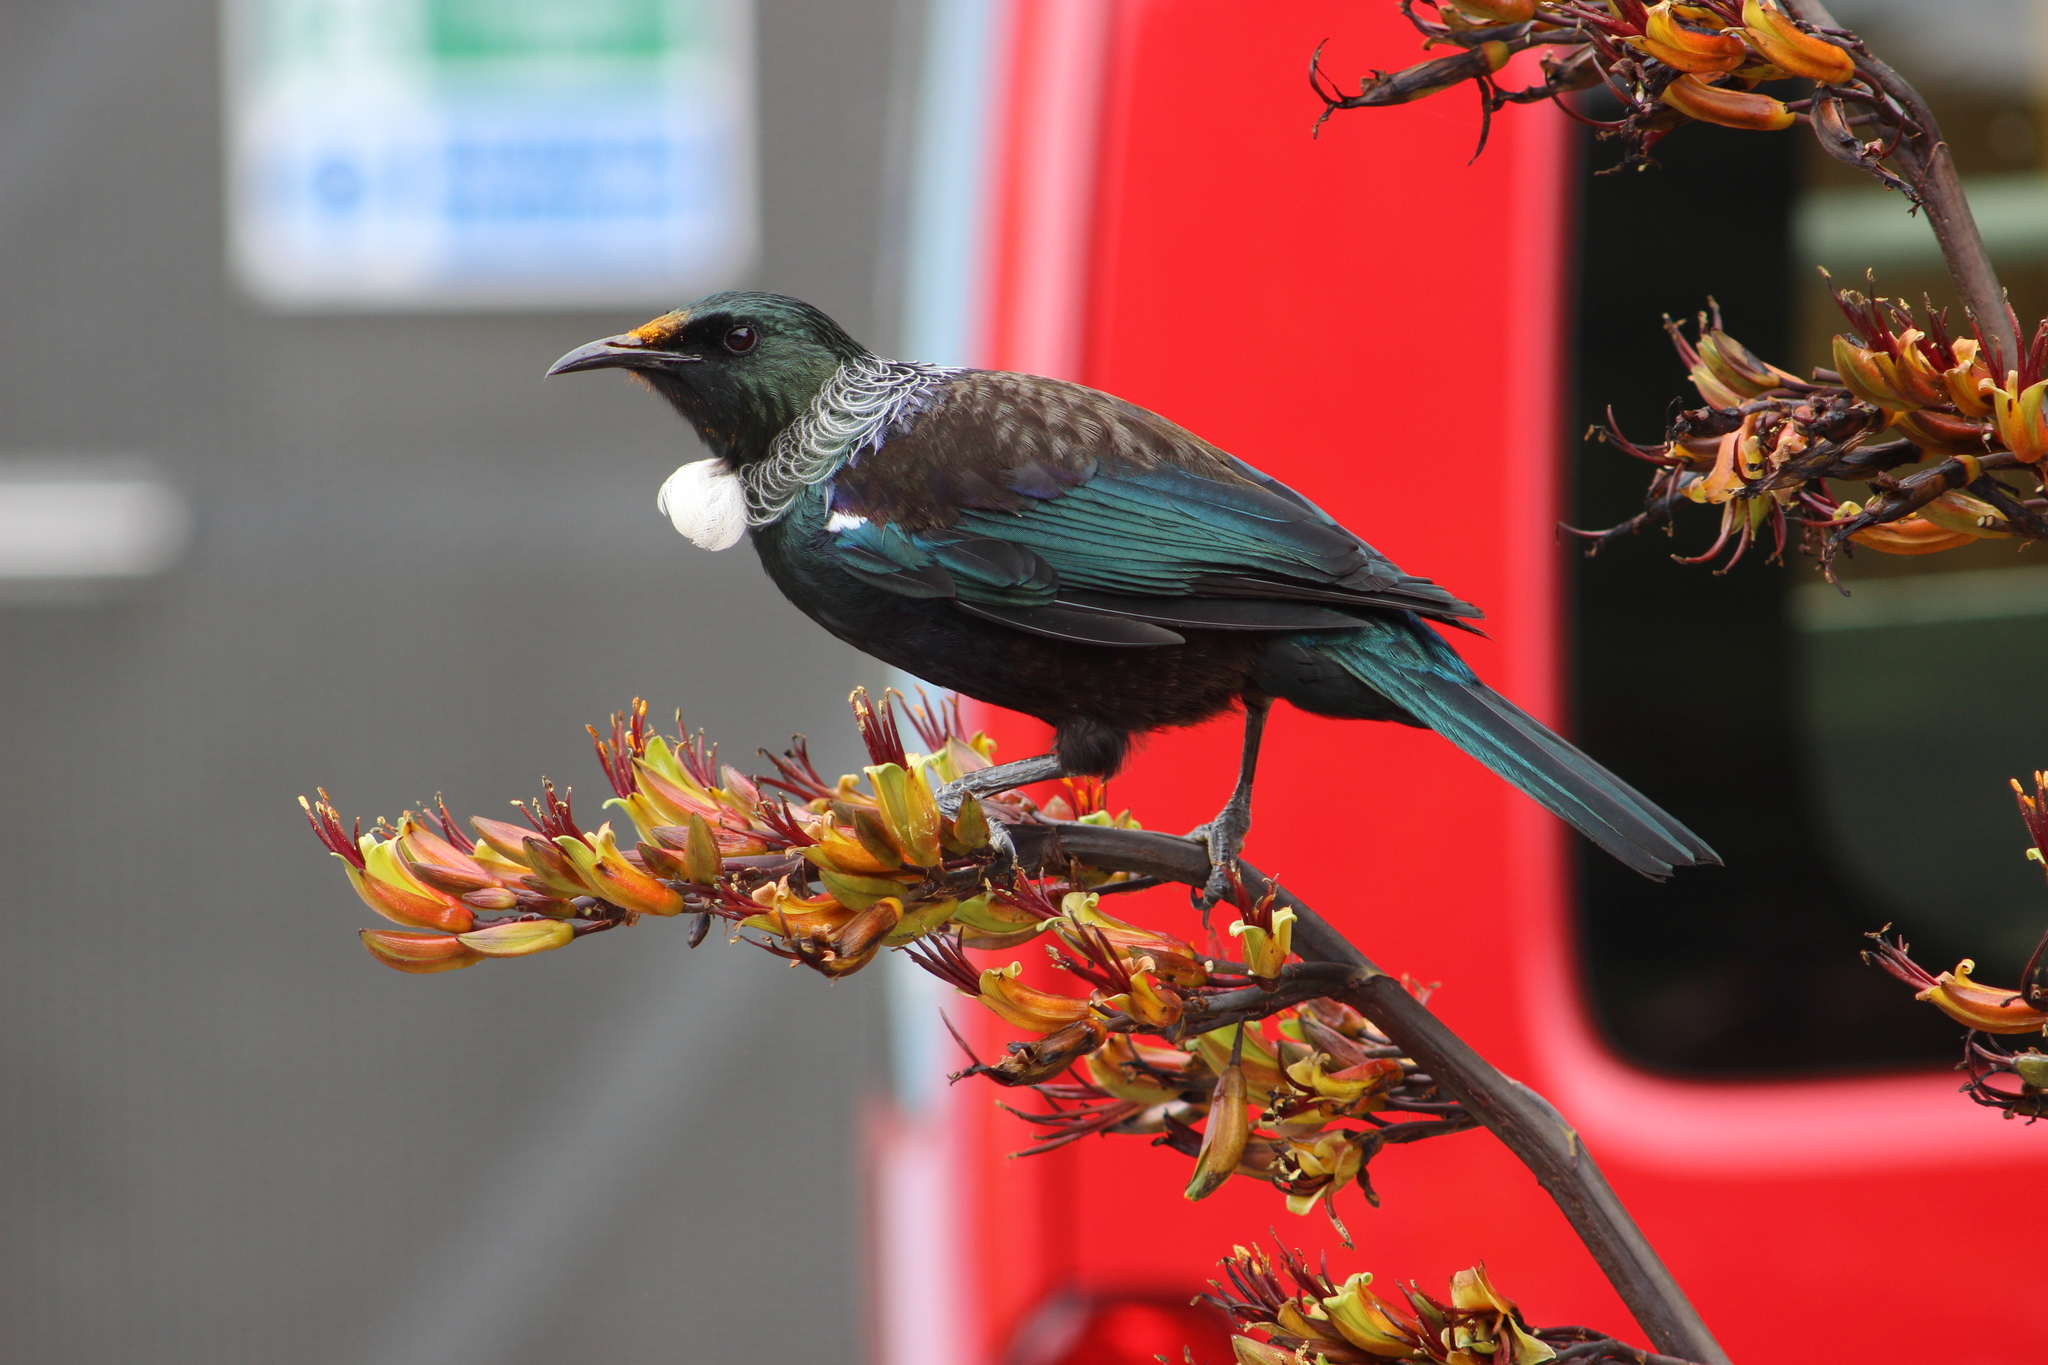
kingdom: Animalia
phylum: Chordata
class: Aves
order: Passeriformes
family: Meliphagidae
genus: Prosthemadera
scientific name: Prosthemadera novaeseelandiae
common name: Tui
